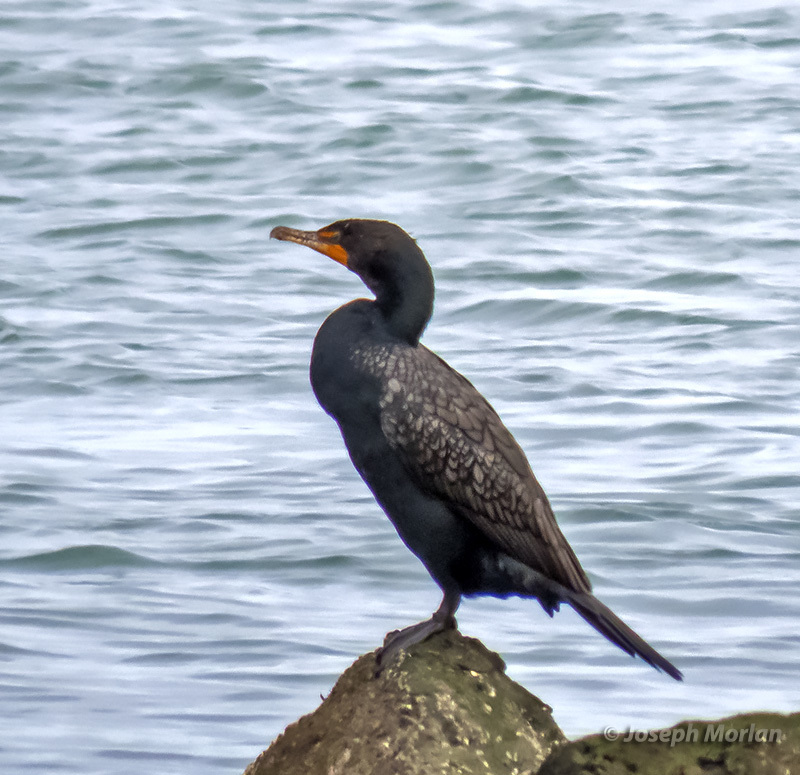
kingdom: Animalia
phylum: Chordata
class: Aves
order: Suliformes
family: Phalacrocoracidae
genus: Phalacrocorax
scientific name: Phalacrocorax auritus
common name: Double-crested cormorant
